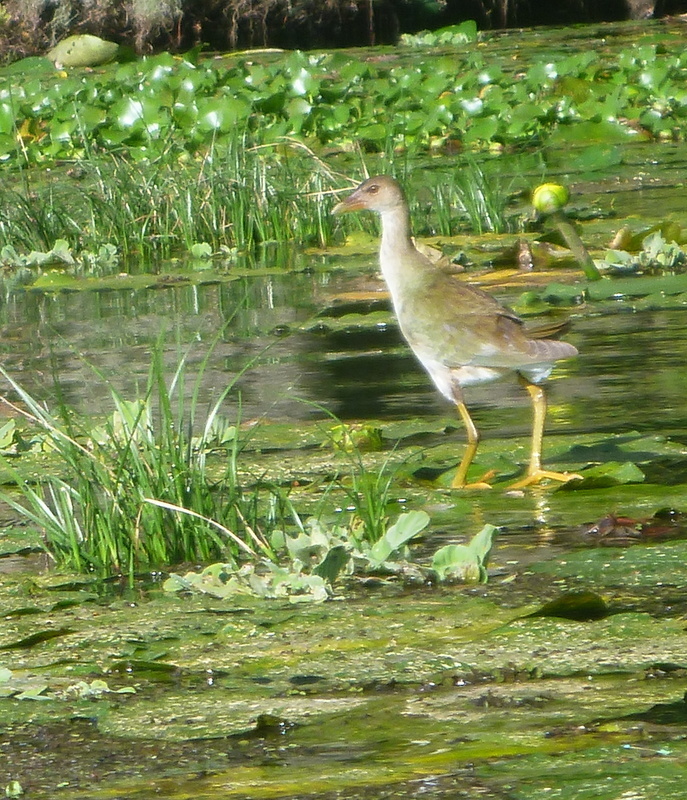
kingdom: Animalia
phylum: Chordata
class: Aves
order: Gruiformes
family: Rallidae
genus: Porphyrio
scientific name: Porphyrio martinica
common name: Purple gallinule
